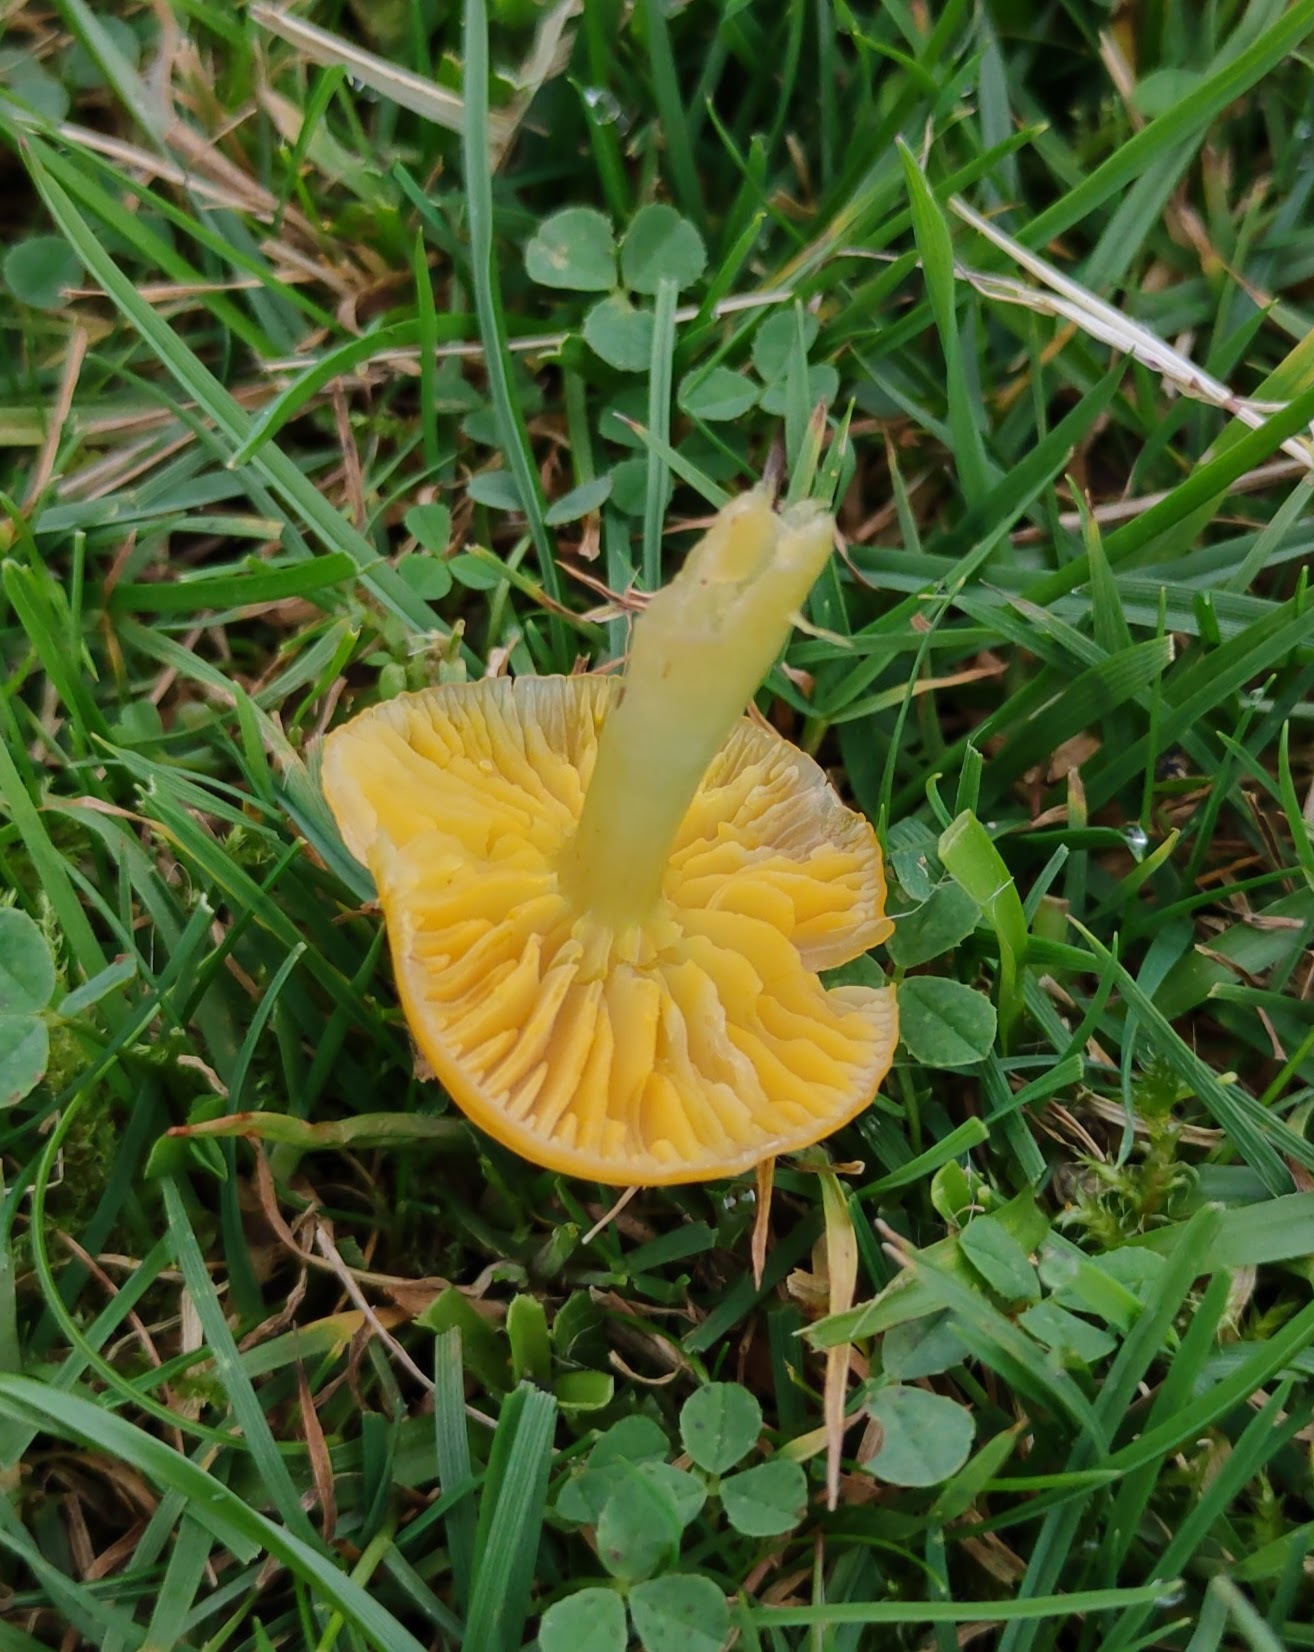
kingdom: Fungi
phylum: Basidiomycota
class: Agaricomycetes
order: Agaricales
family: Hygrophoraceae
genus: Gliophorus
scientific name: Gliophorus psittacinus
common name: Parrot wax-cap
